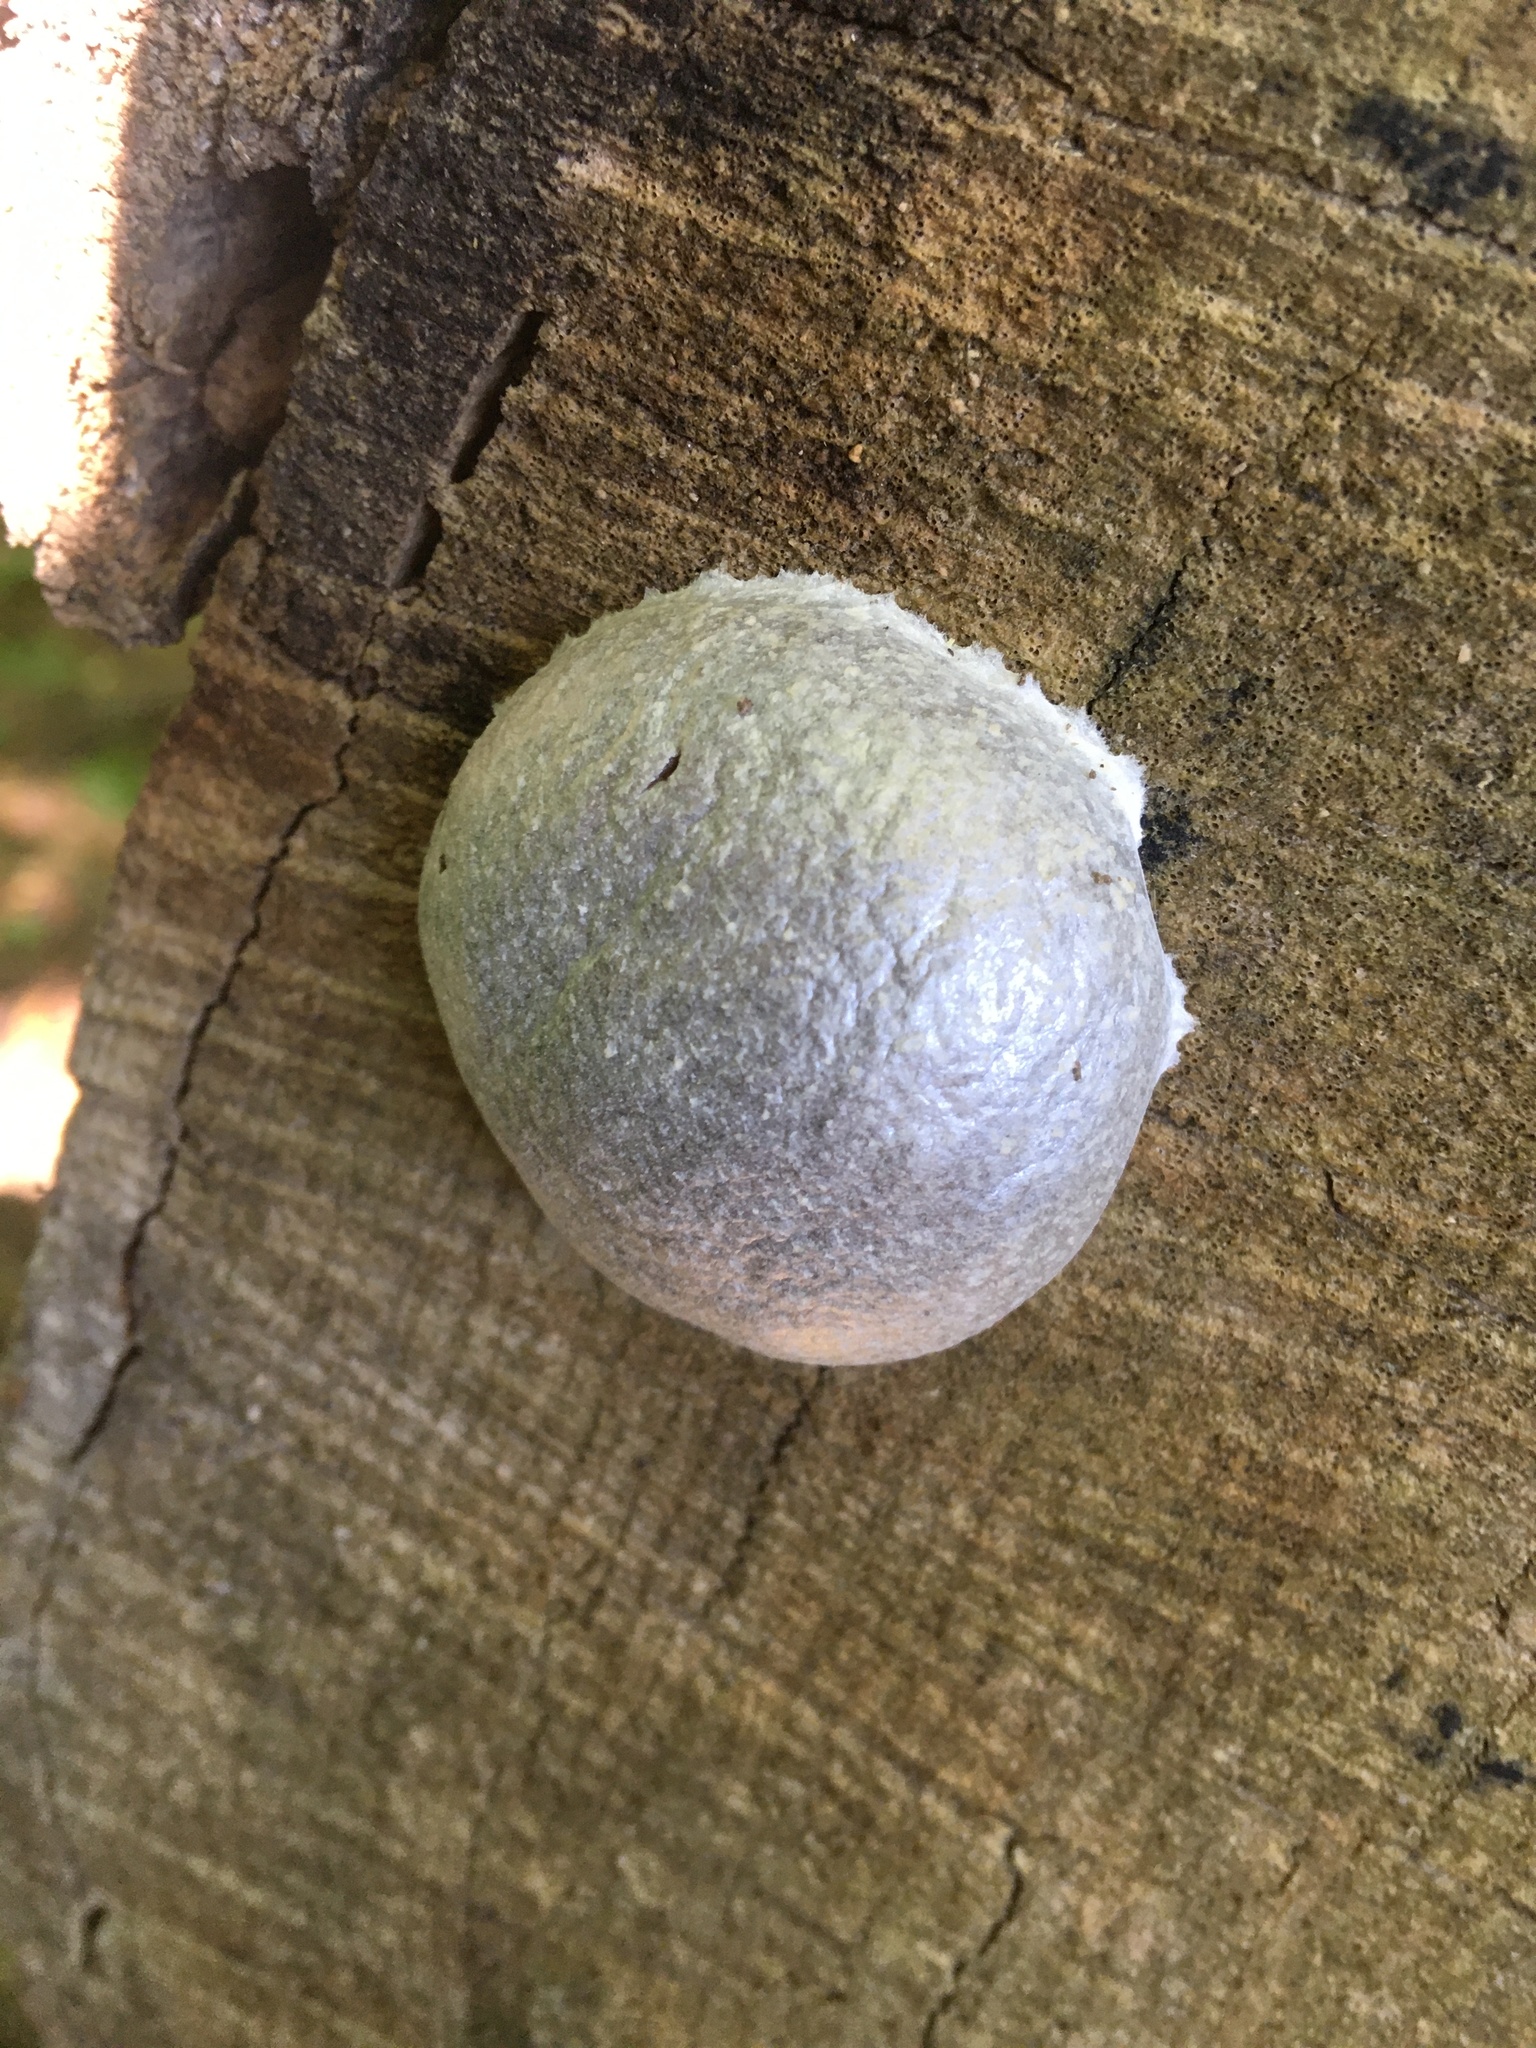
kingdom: Protozoa
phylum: Mycetozoa
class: Myxomycetes
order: Cribrariales
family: Tubiferaceae
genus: Reticularia
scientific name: Reticularia lycoperdon
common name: False puffball
